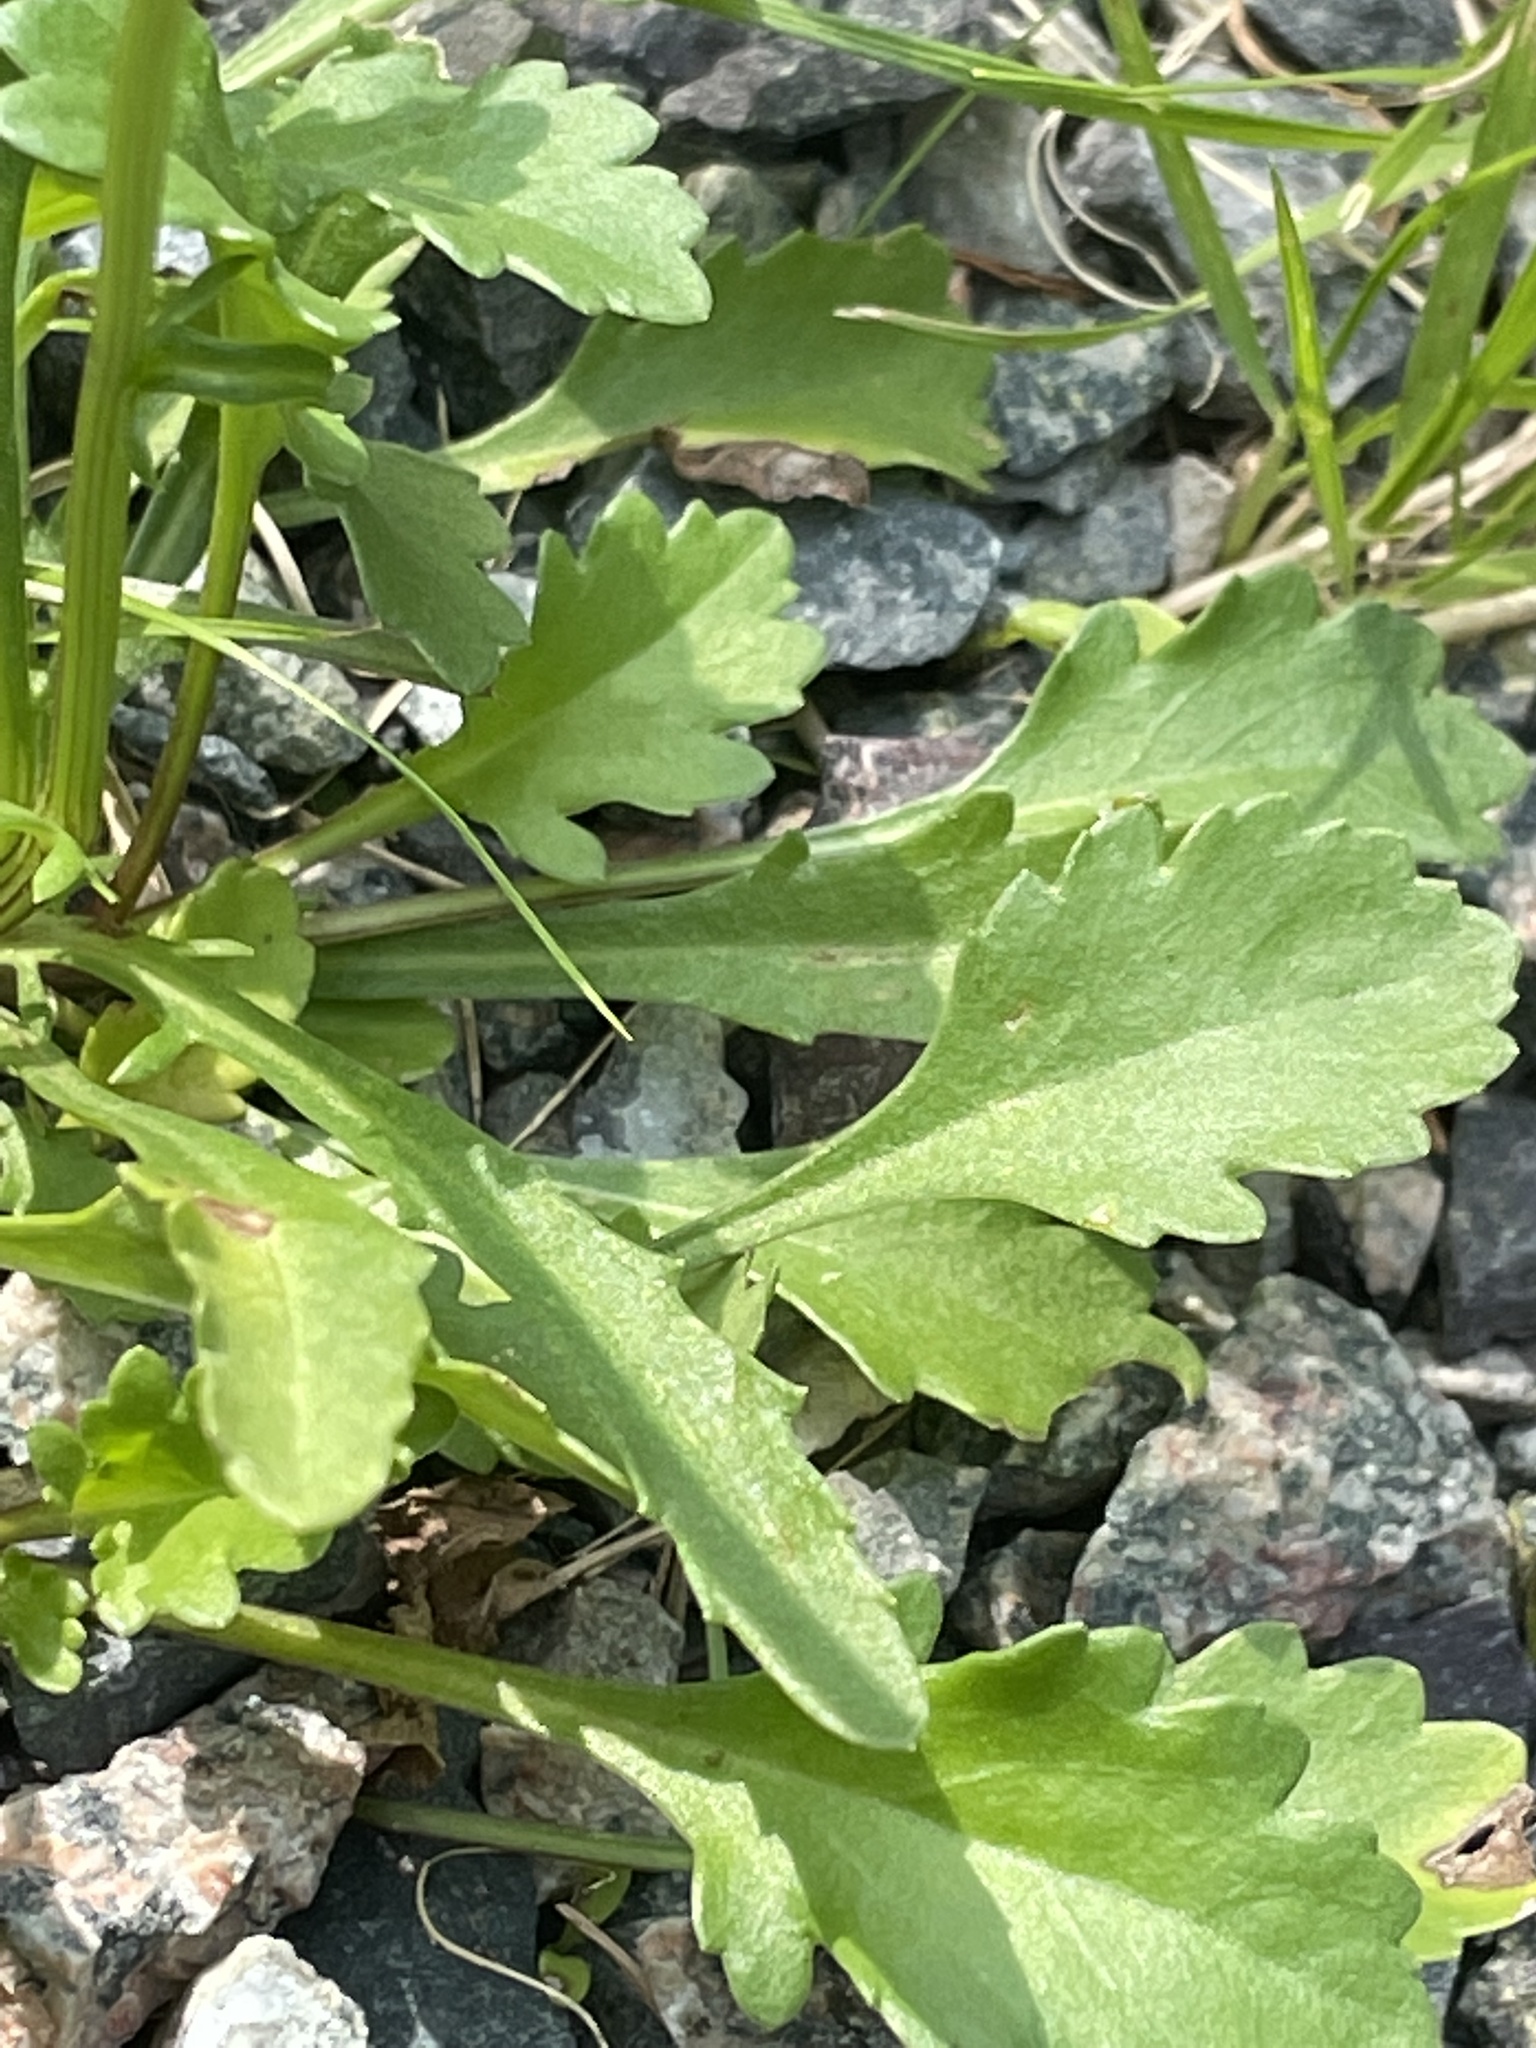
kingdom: Plantae
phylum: Tracheophyta
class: Magnoliopsida
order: Asterales
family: Asteraceae
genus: Leucanthemum
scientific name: Leucanthemum vulgare
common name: Oxeye daisy
